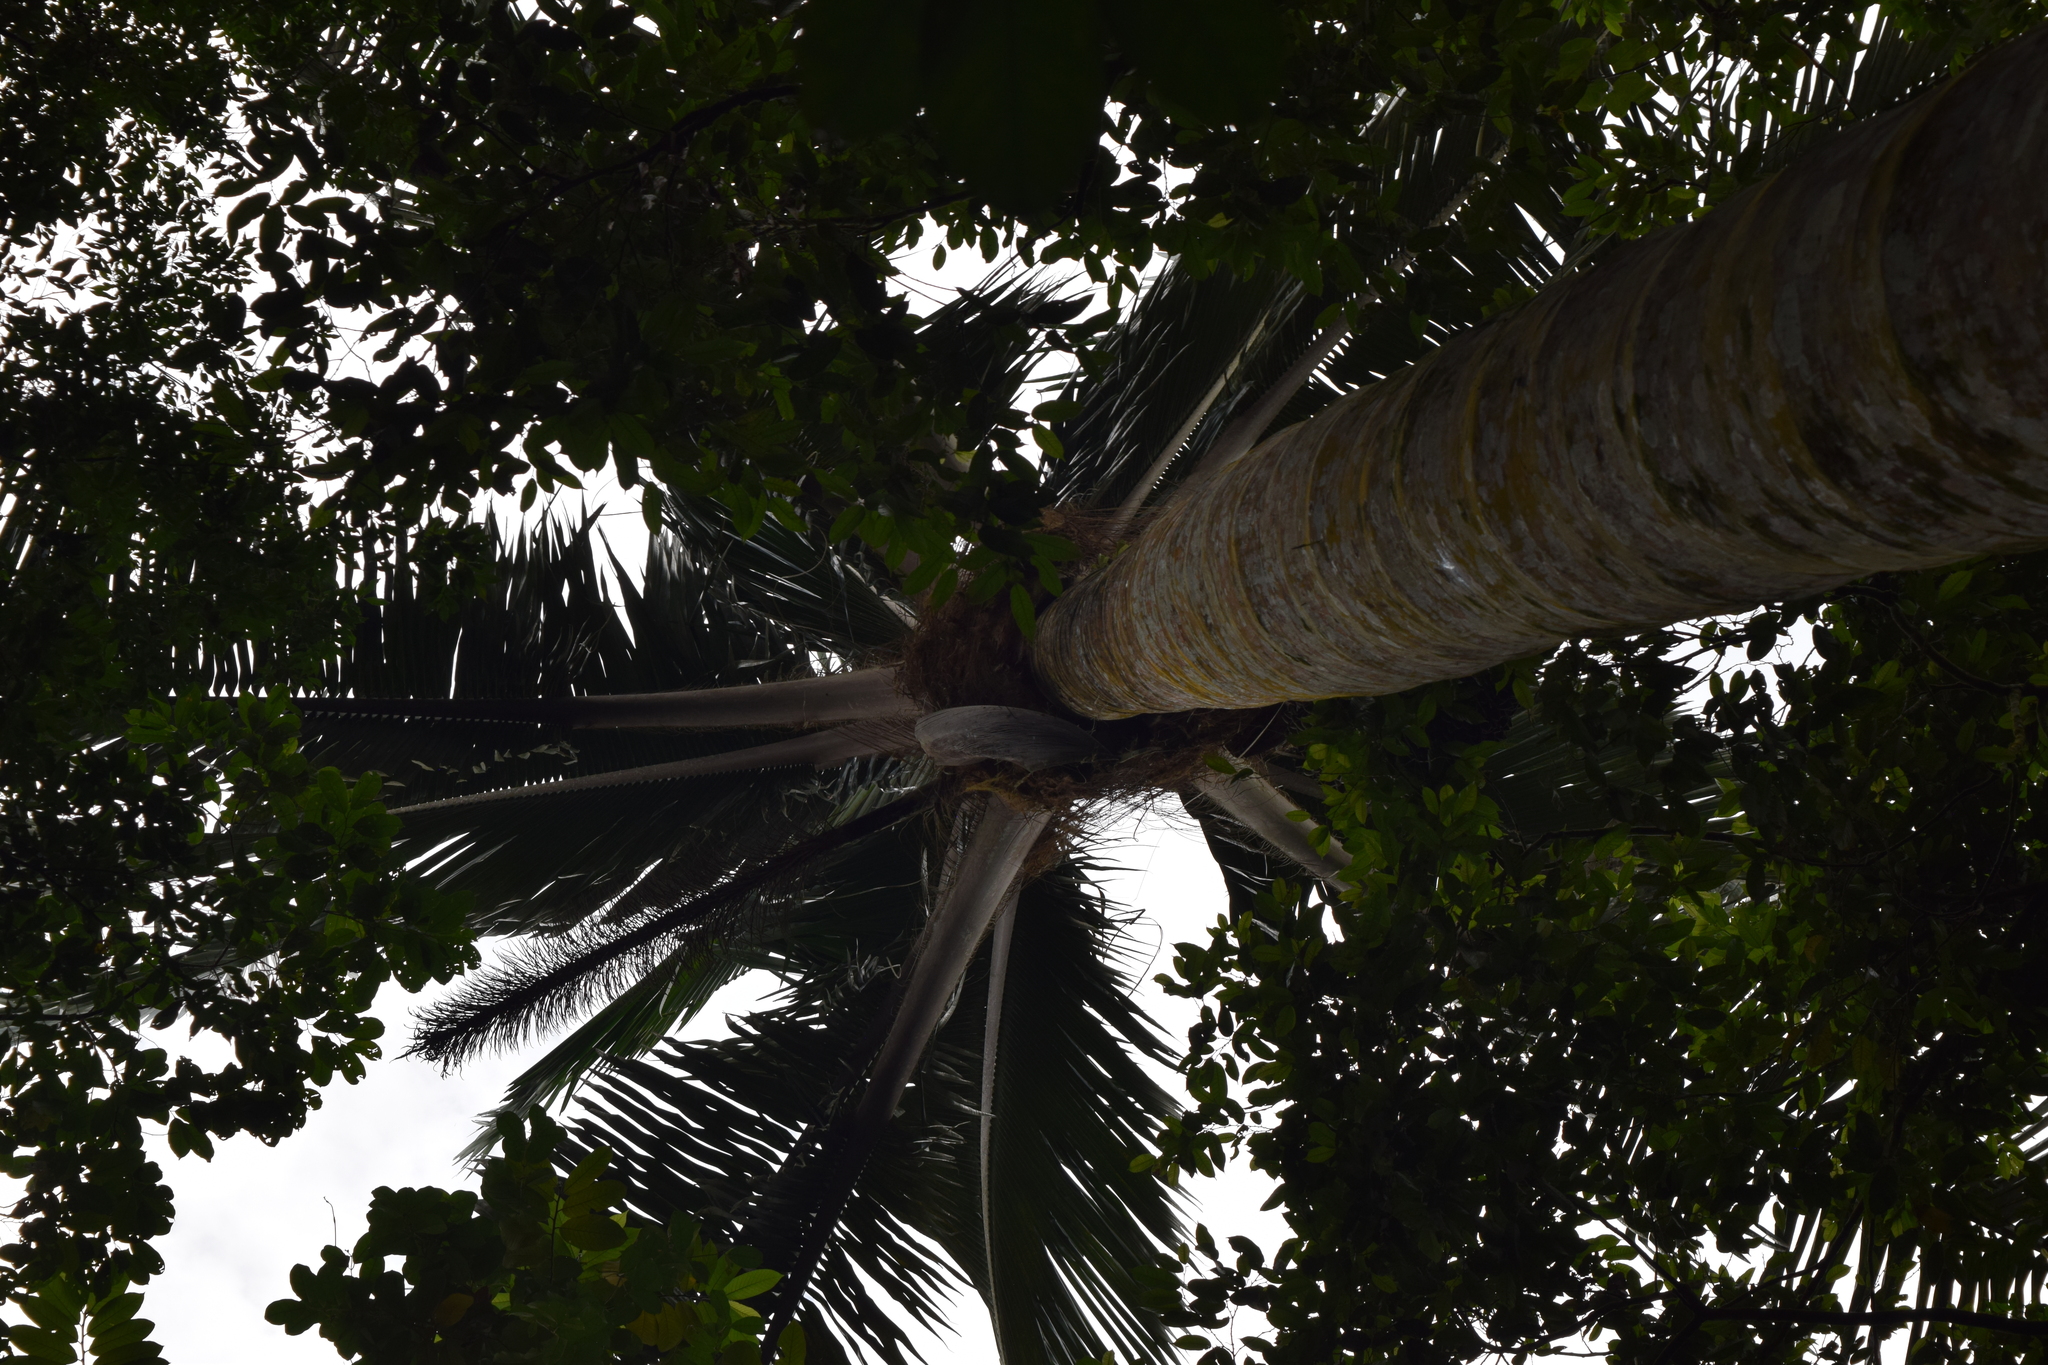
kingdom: Plantae
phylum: Tracheophyta
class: Liliopsida
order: Arecales
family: Arecaceae
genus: Attalea
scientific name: Attalea colenda
